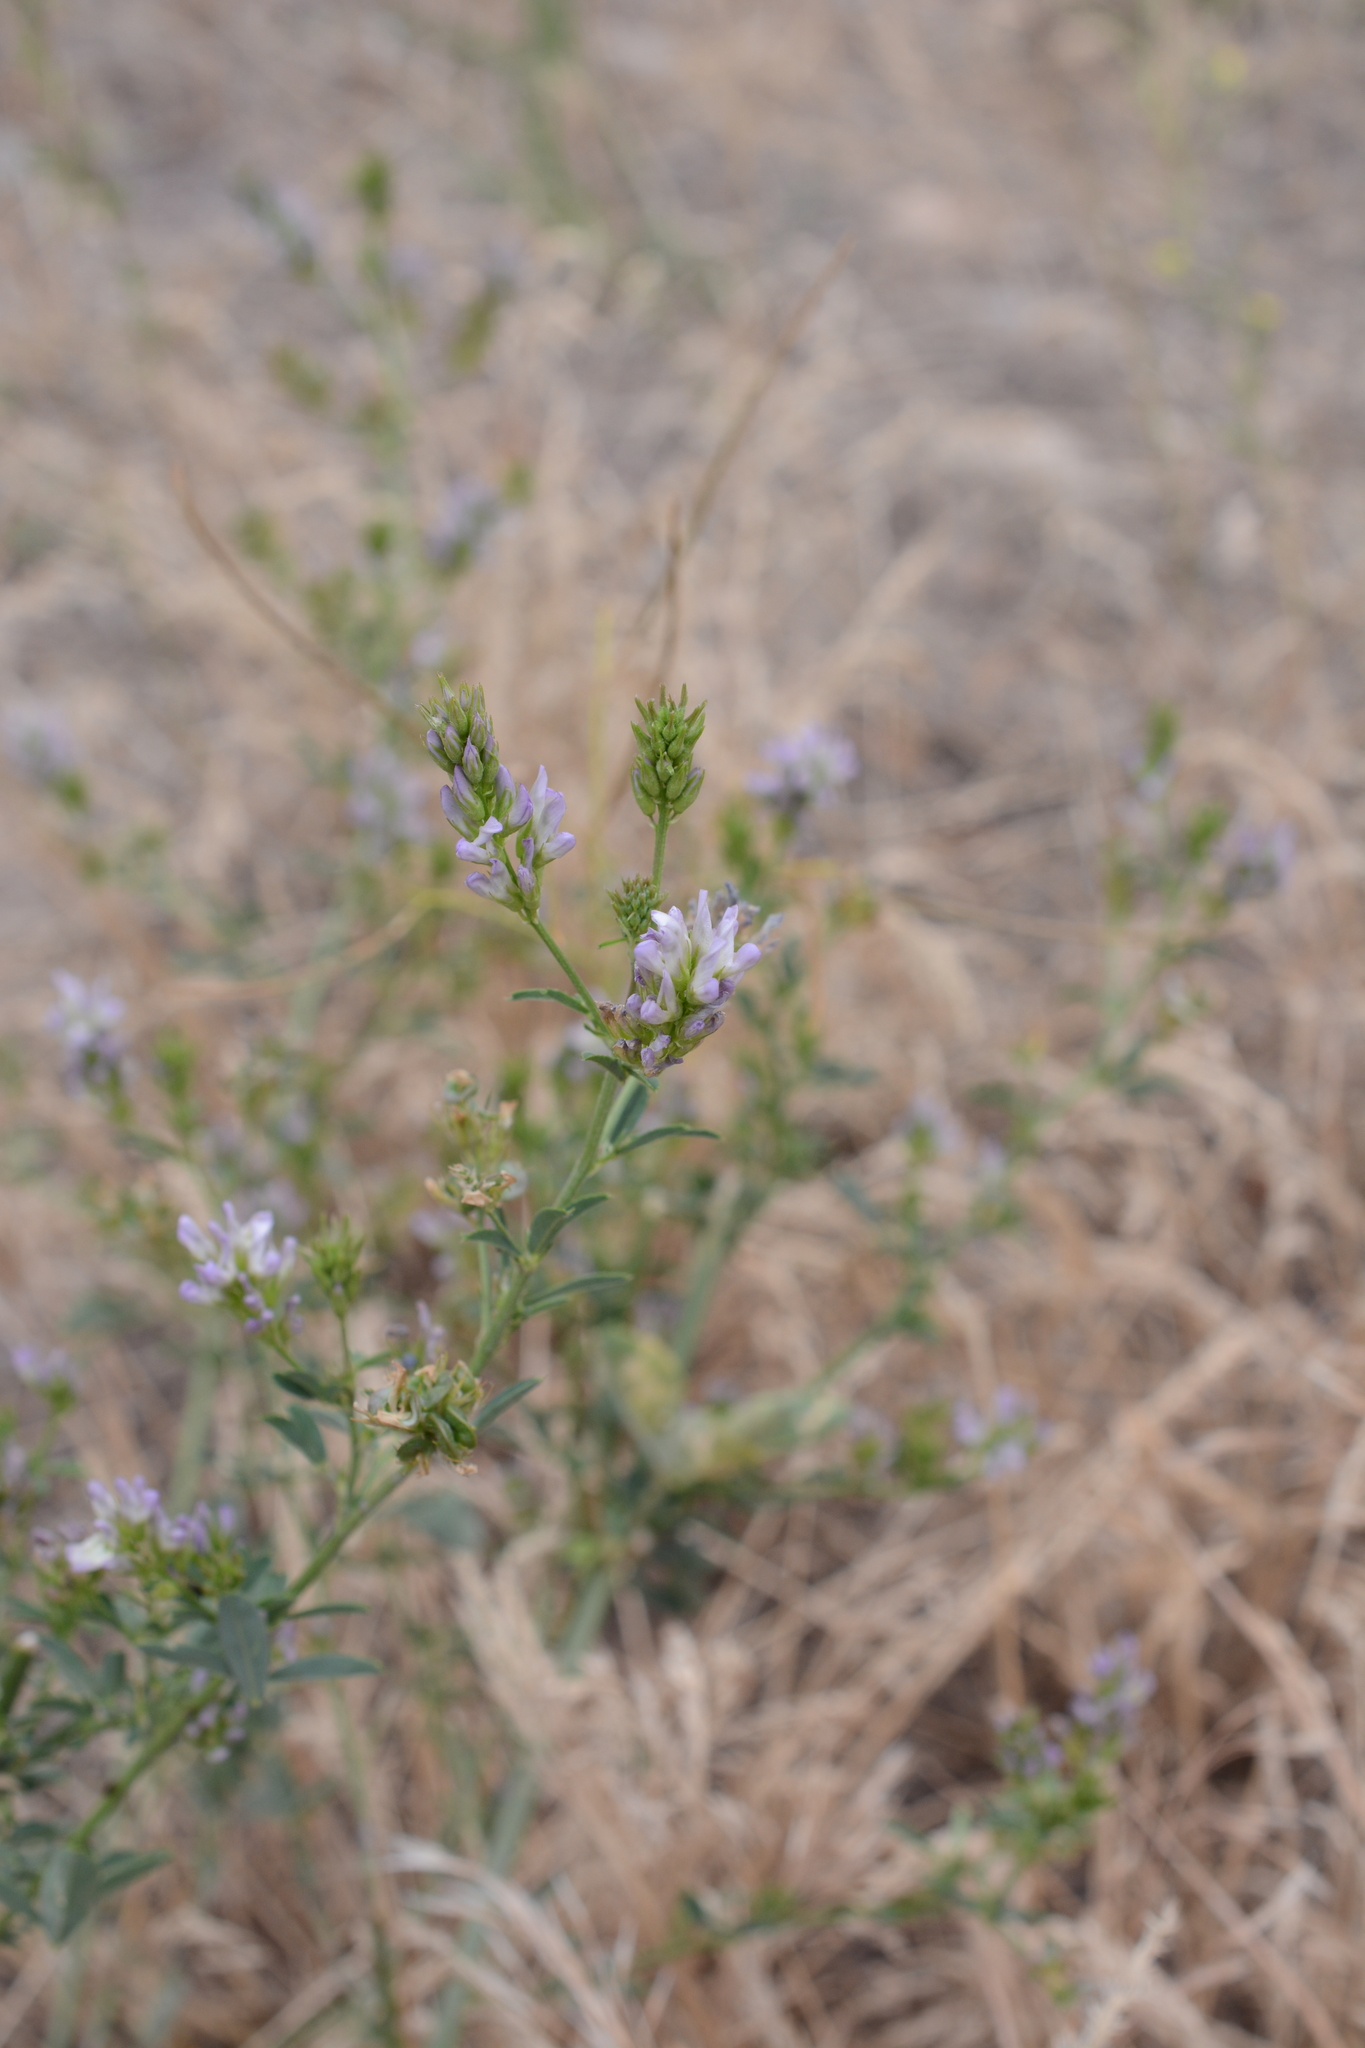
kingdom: Plantae
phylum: Tracheophyta
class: Magnoliopsida
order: Fabales
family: Fabaceae
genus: Medicago
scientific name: Medicago sativa
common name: Alfalfa
